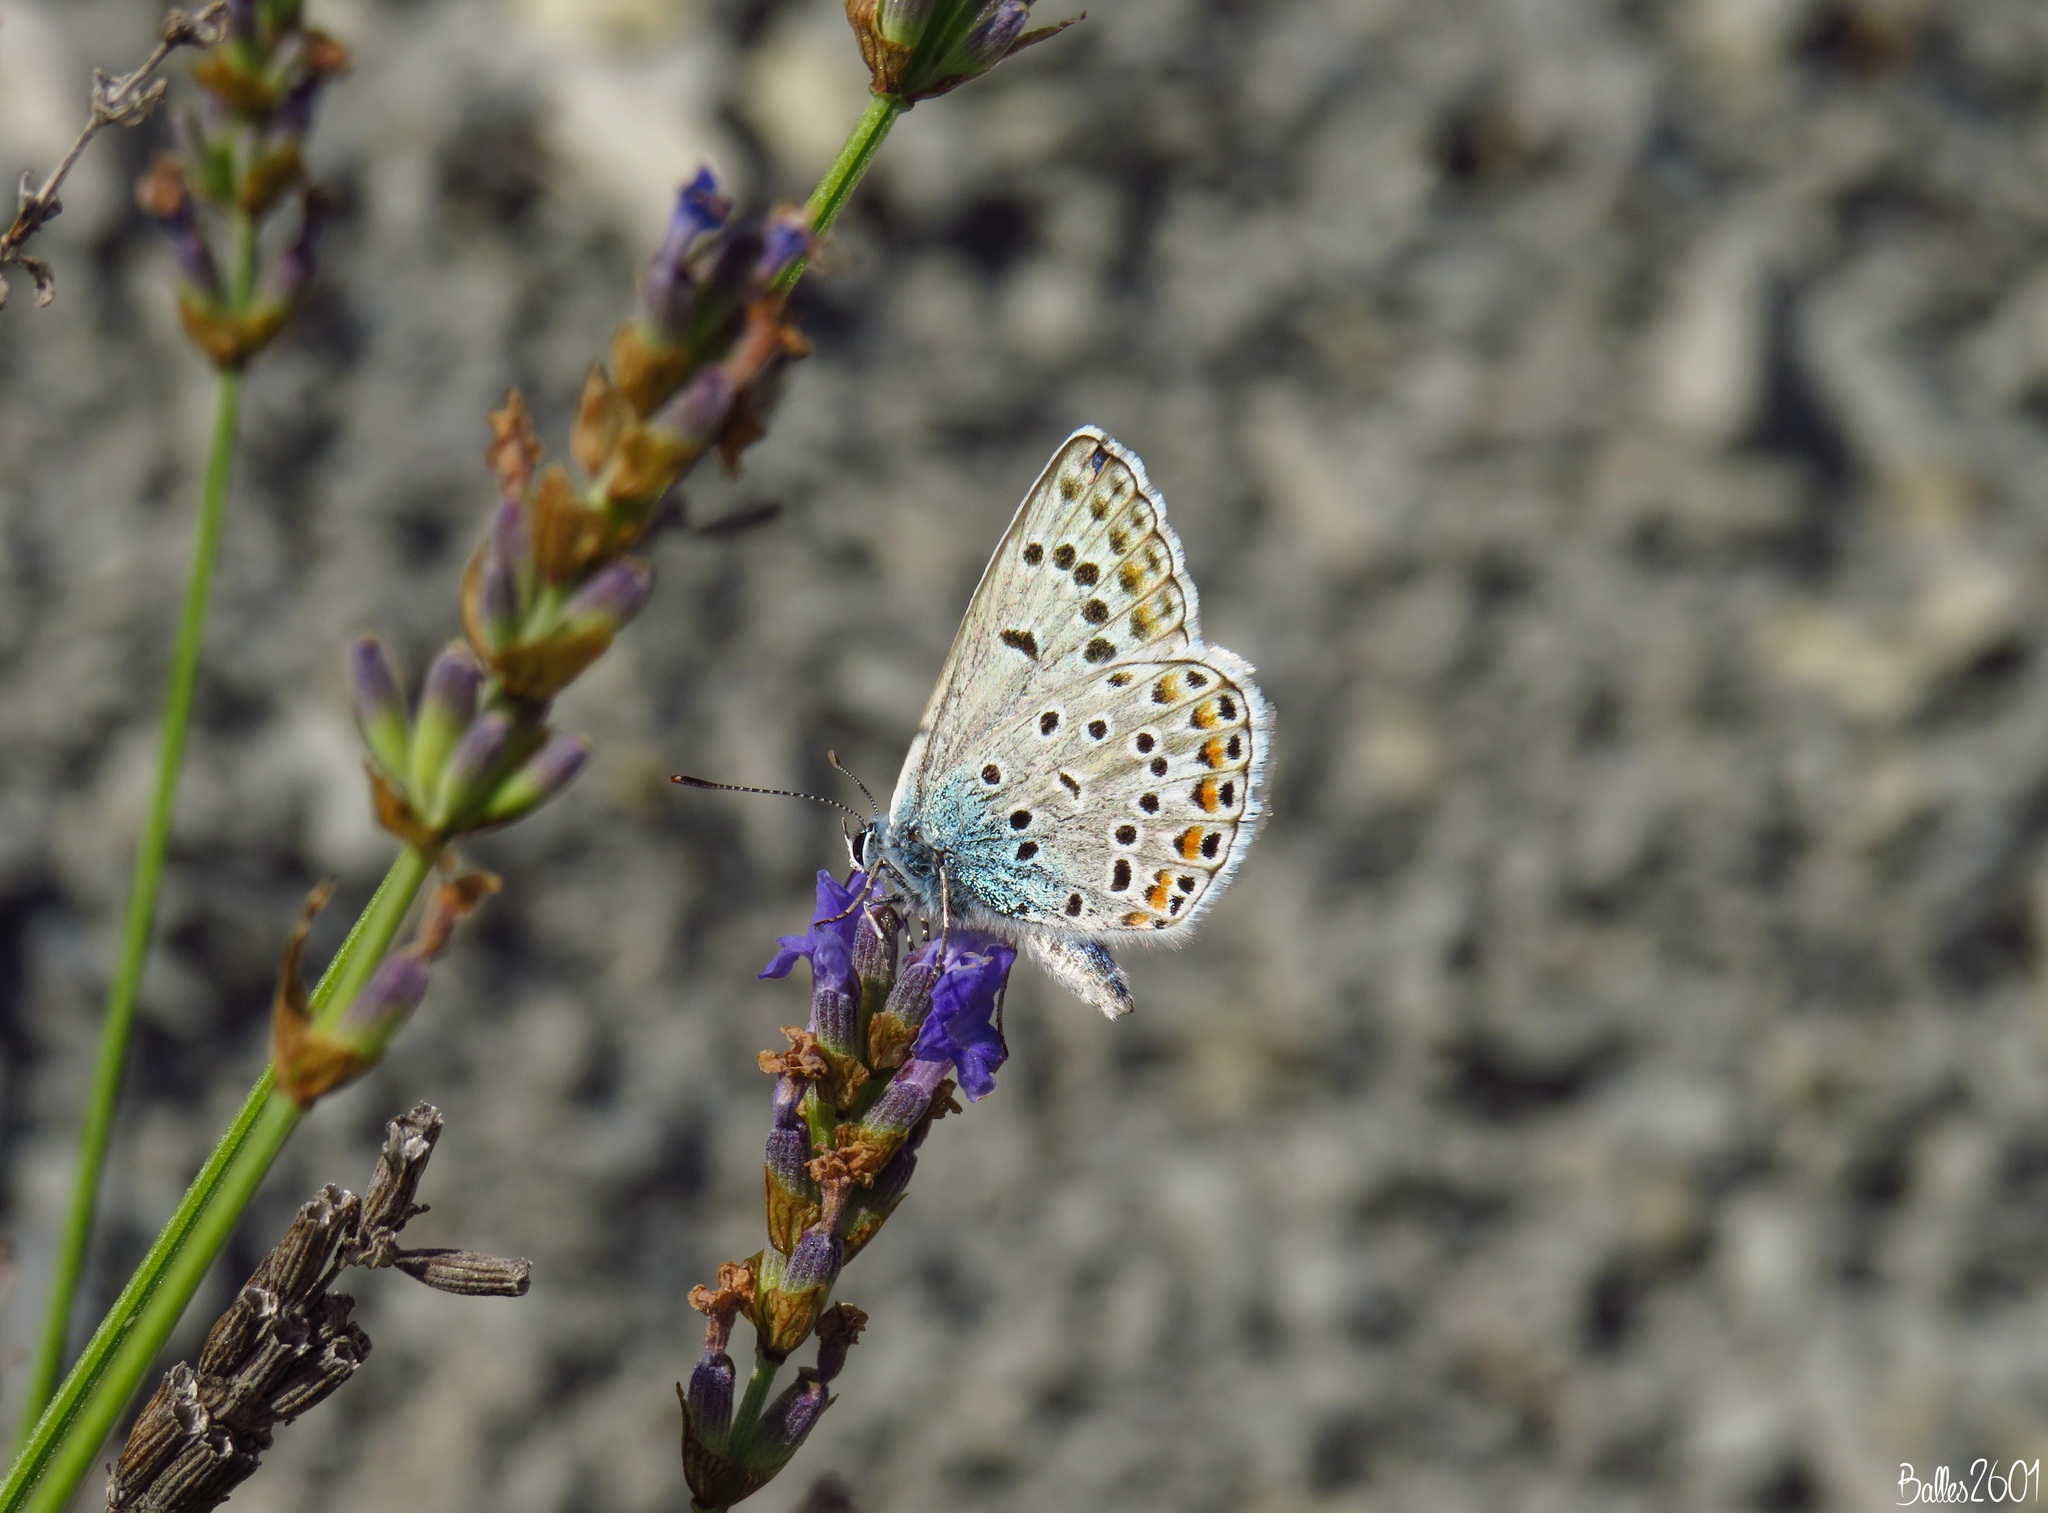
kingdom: Animalia
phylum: Arthropoda
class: Insecta
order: Lepidoptera
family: Lycaenidae
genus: Plebicula
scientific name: Plebicula escheri
